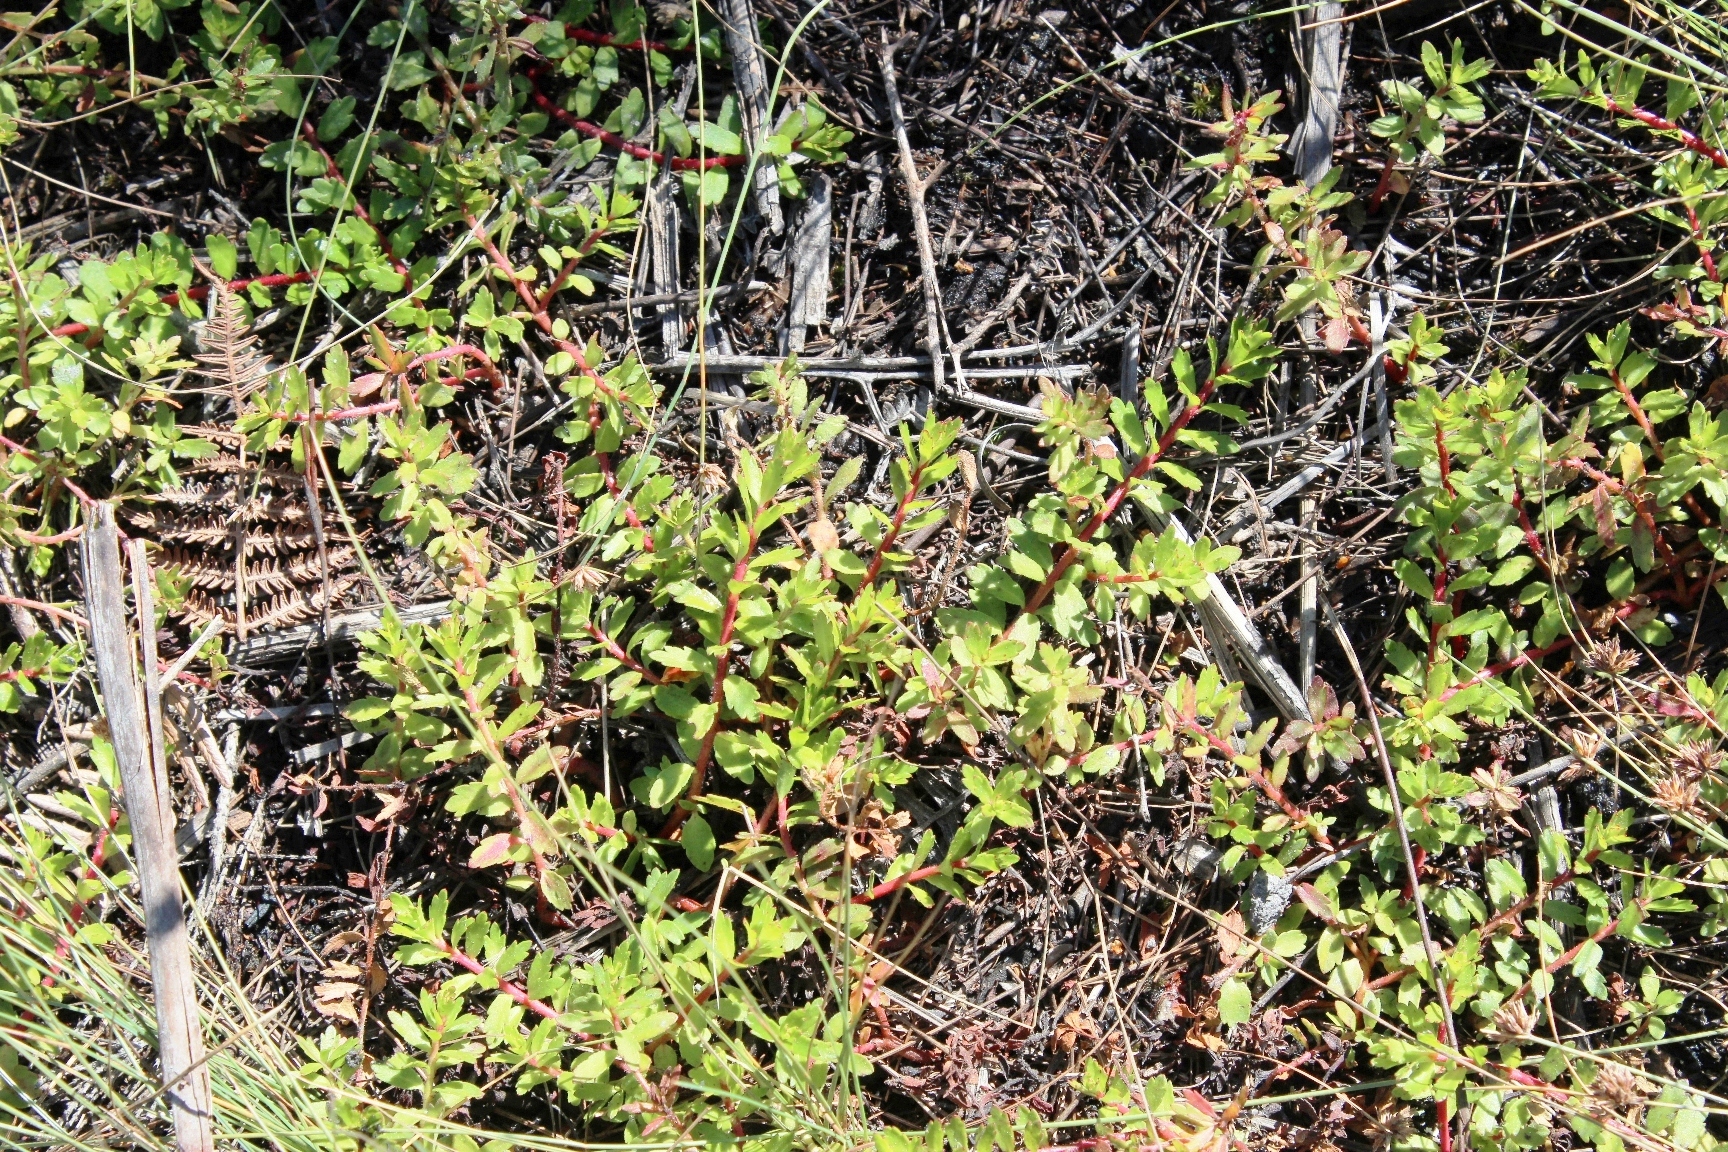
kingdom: Plantae
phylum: Tracheophyta
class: Magnoliopsida
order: Saxifragales
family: Haloragaceae
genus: Laurembergia
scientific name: Laurembergia repens
